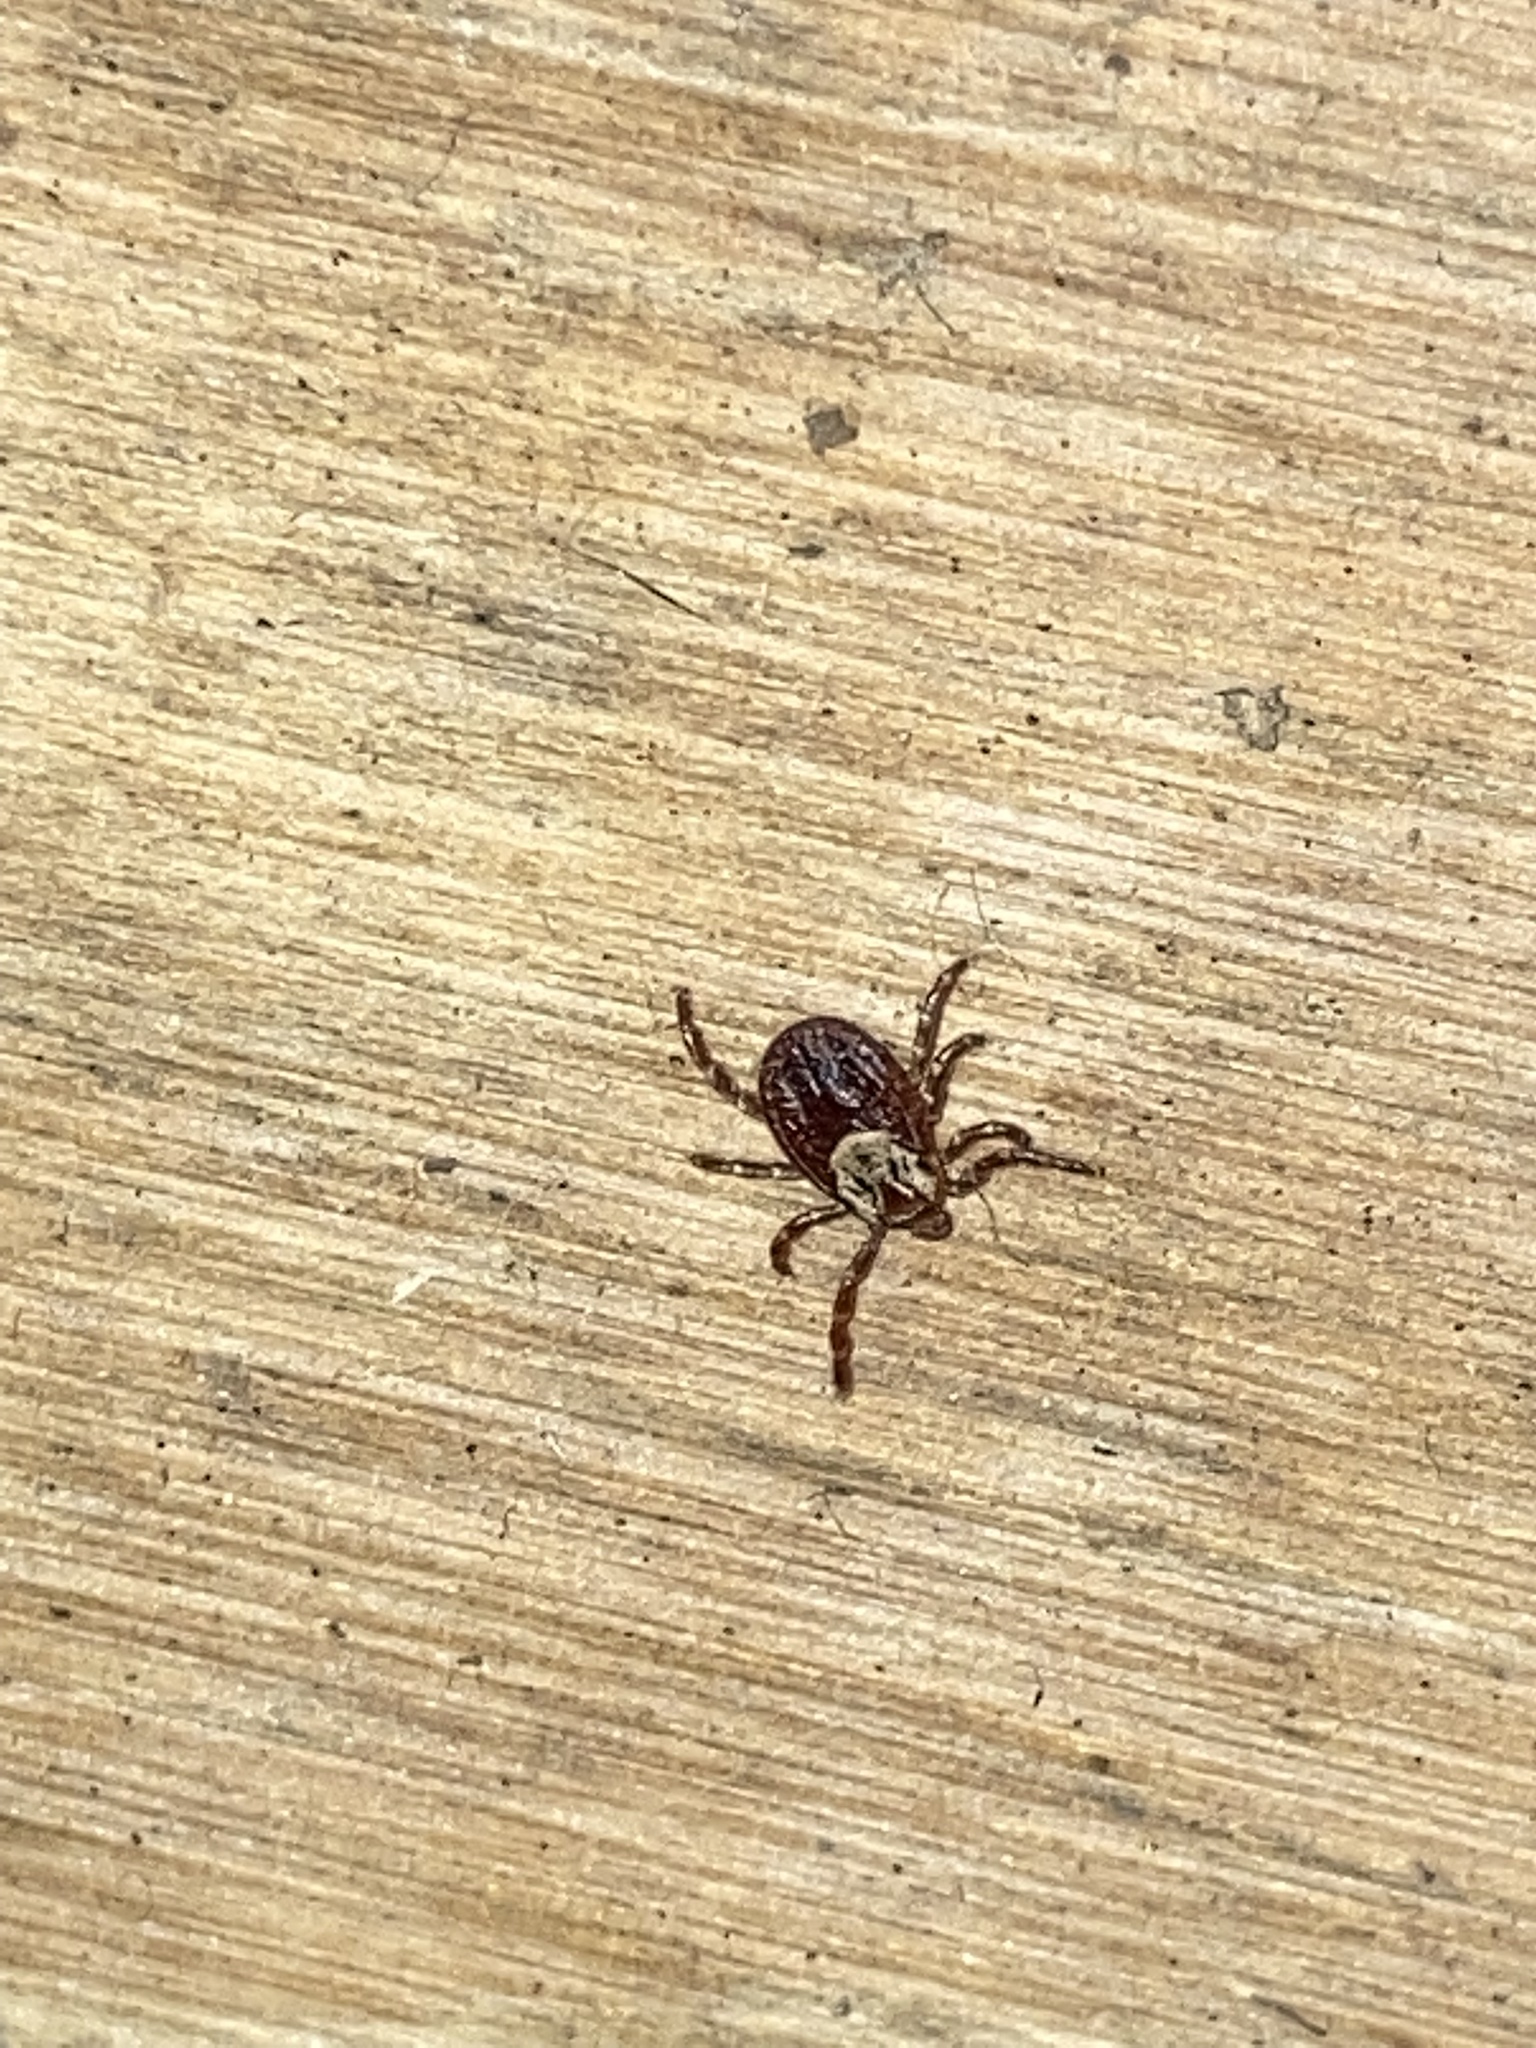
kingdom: Animalia
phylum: Arthropoda
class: Arachnida
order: Ixodida
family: Ixodidae
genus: Dermacentor
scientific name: Dermacentor variabilis
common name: American dog tick
